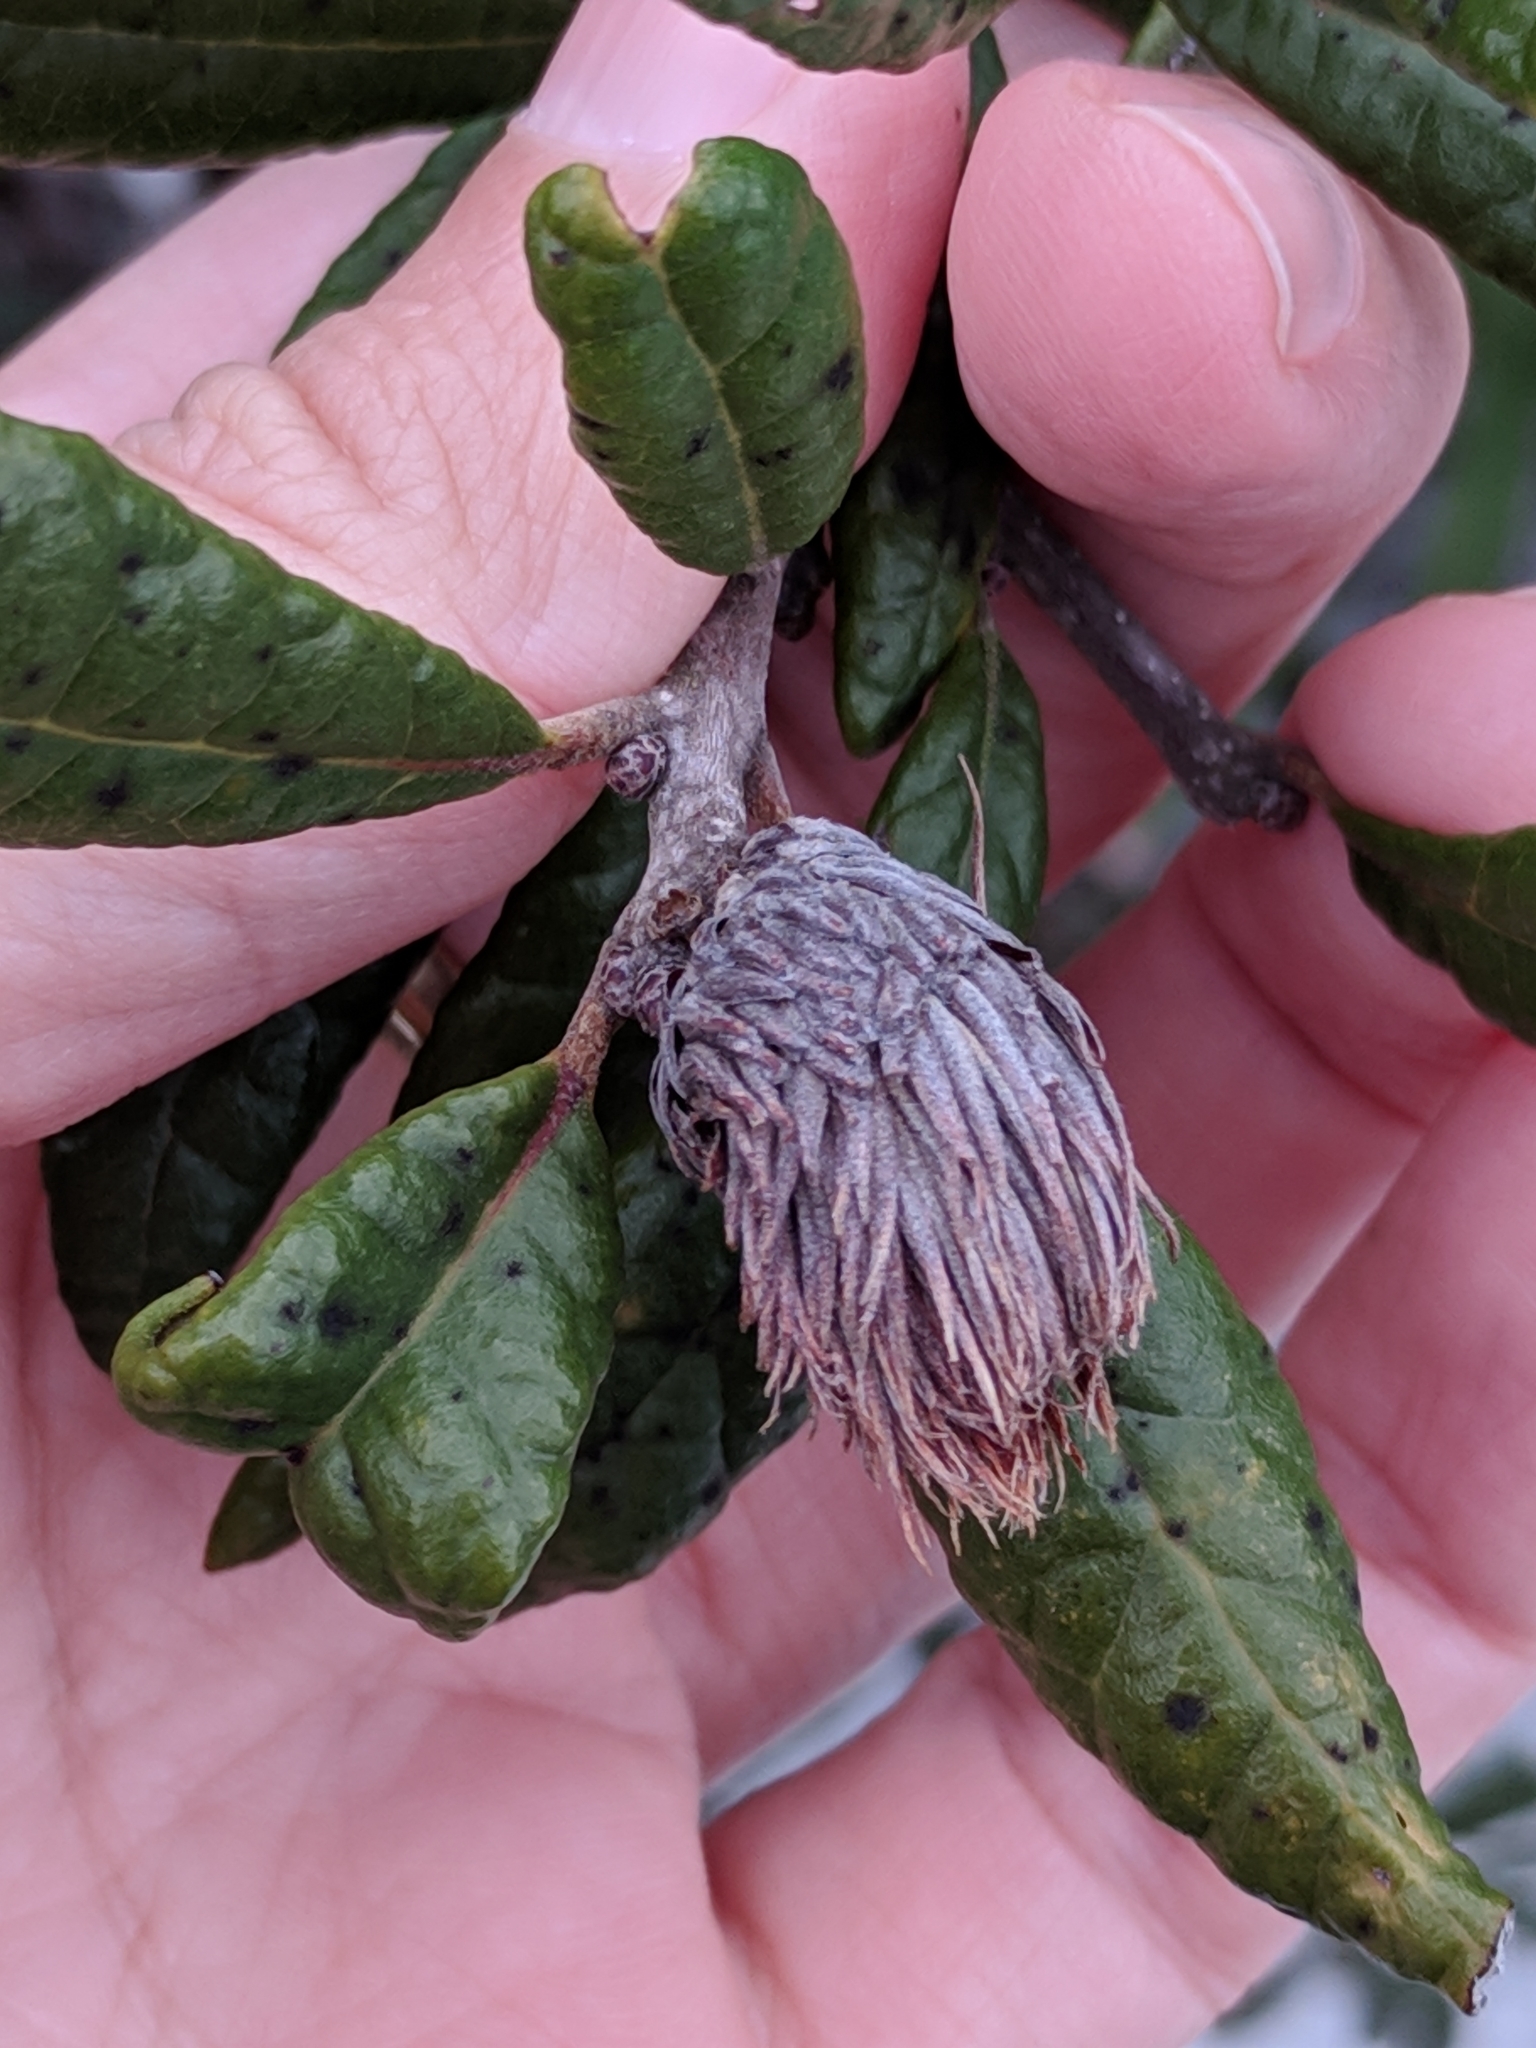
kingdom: Animalia
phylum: Arthropoda
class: Insecta
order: Hymenoptera
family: Cynipidae
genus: Andricus
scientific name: Andricus quercusfoliatus
